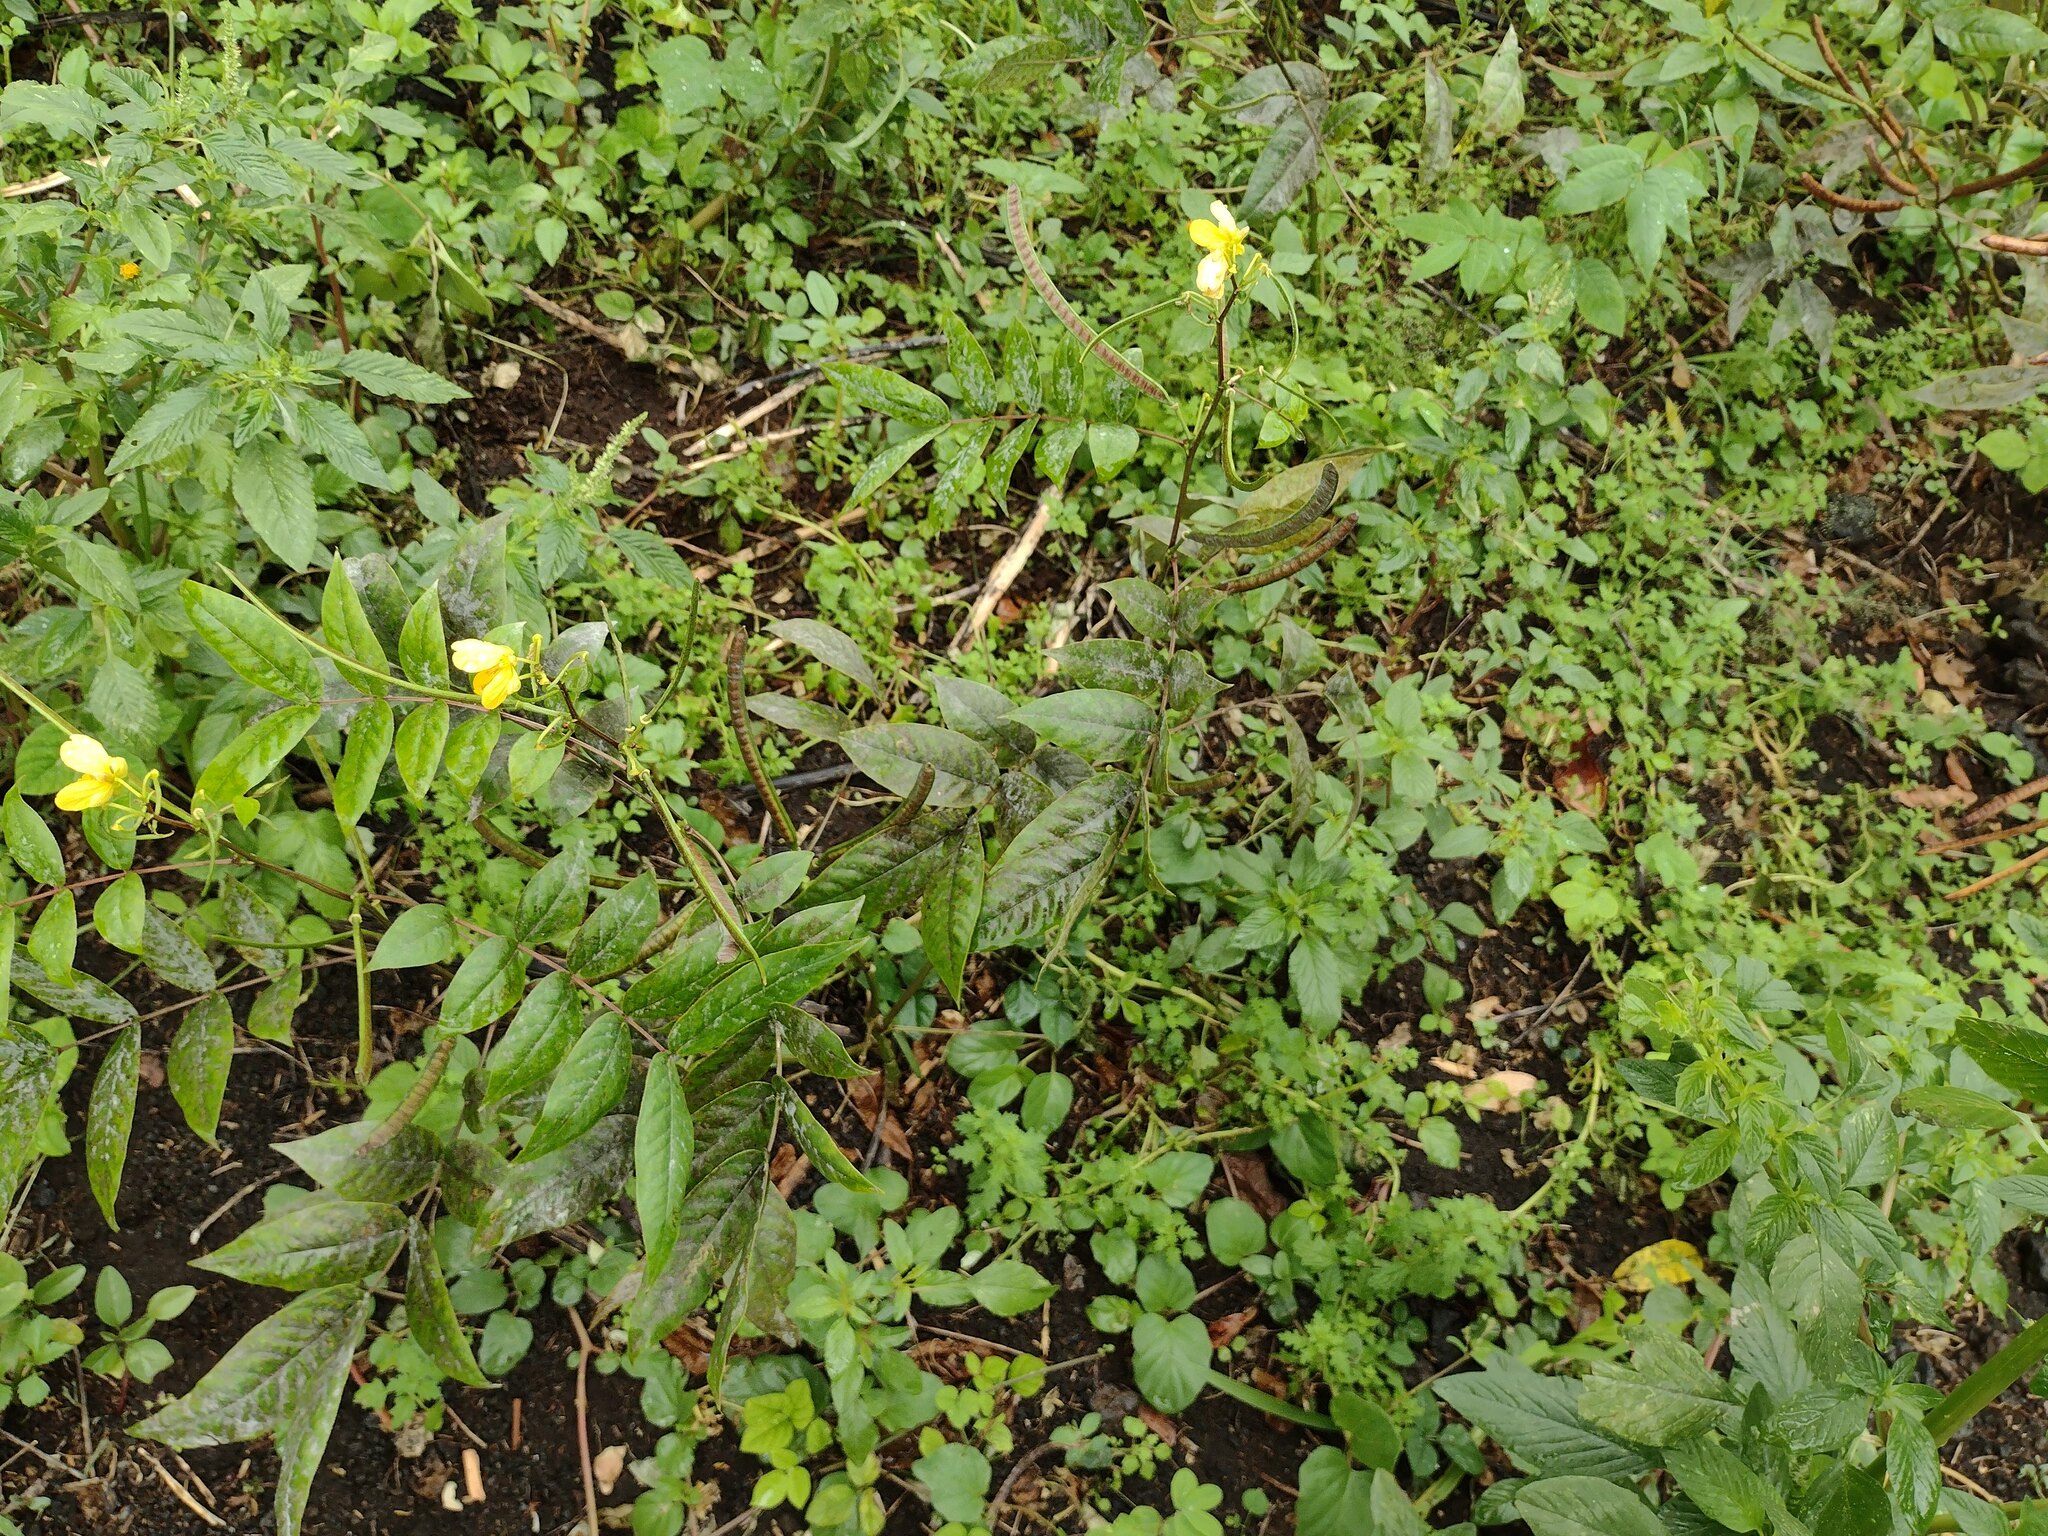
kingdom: Plantae
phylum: Tracheophyta
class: Magnoliopsida
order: Fabales
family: Fabaceae
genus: Senna
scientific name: Senna occidentalis
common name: Septicweed
